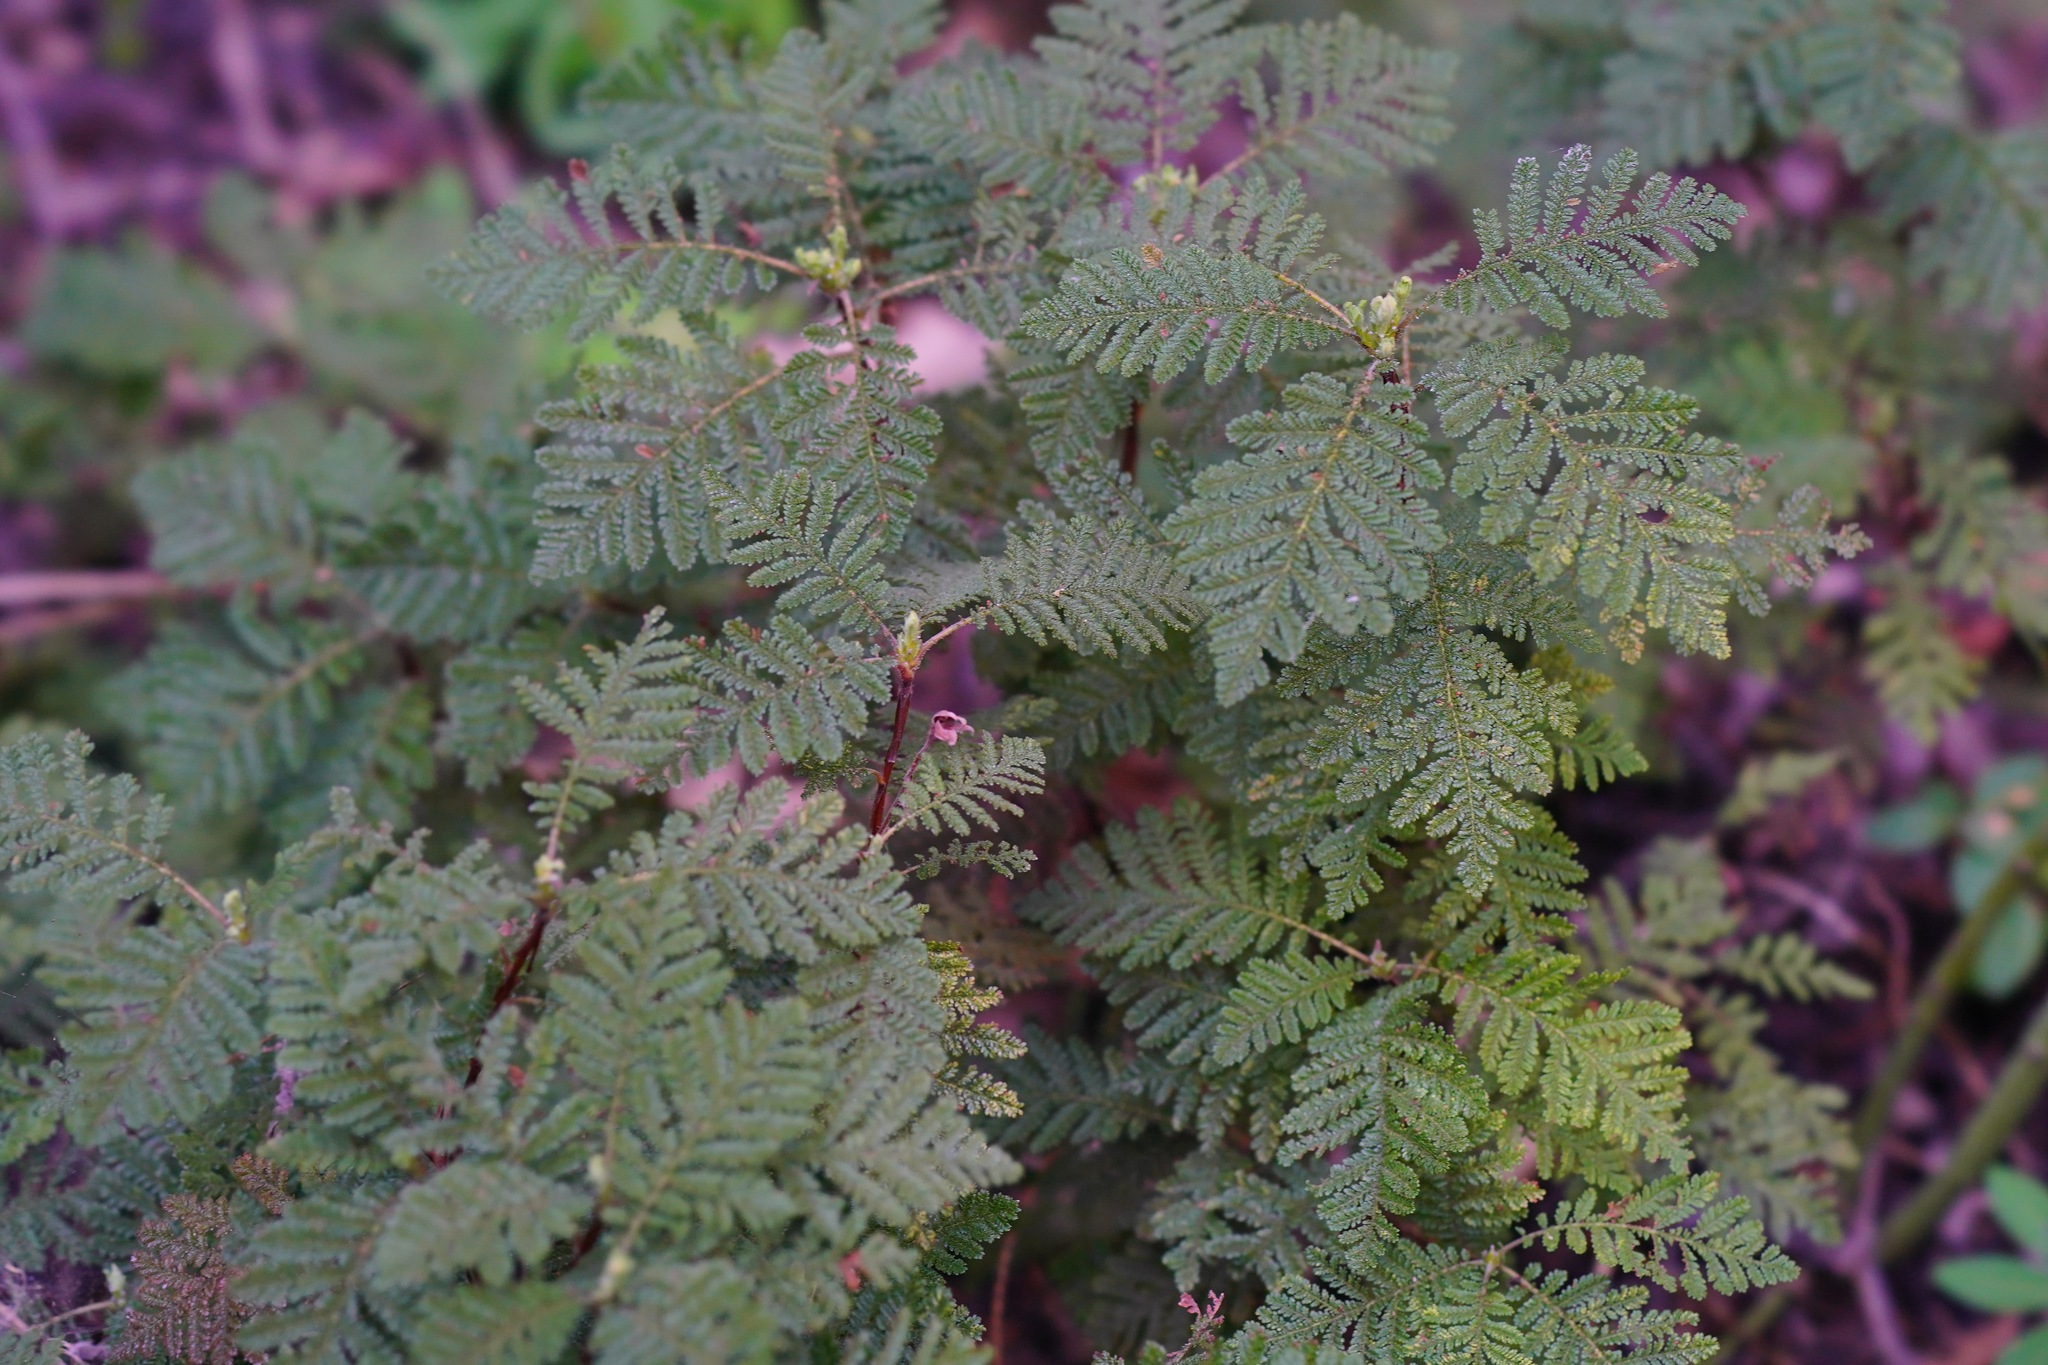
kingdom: Plantae
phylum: Tracheophyta
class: Magnoliopsida
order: Rosales
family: Rosaceae
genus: Chamaebatia
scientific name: Chamaebatia foliolosa
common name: Mountain misery
